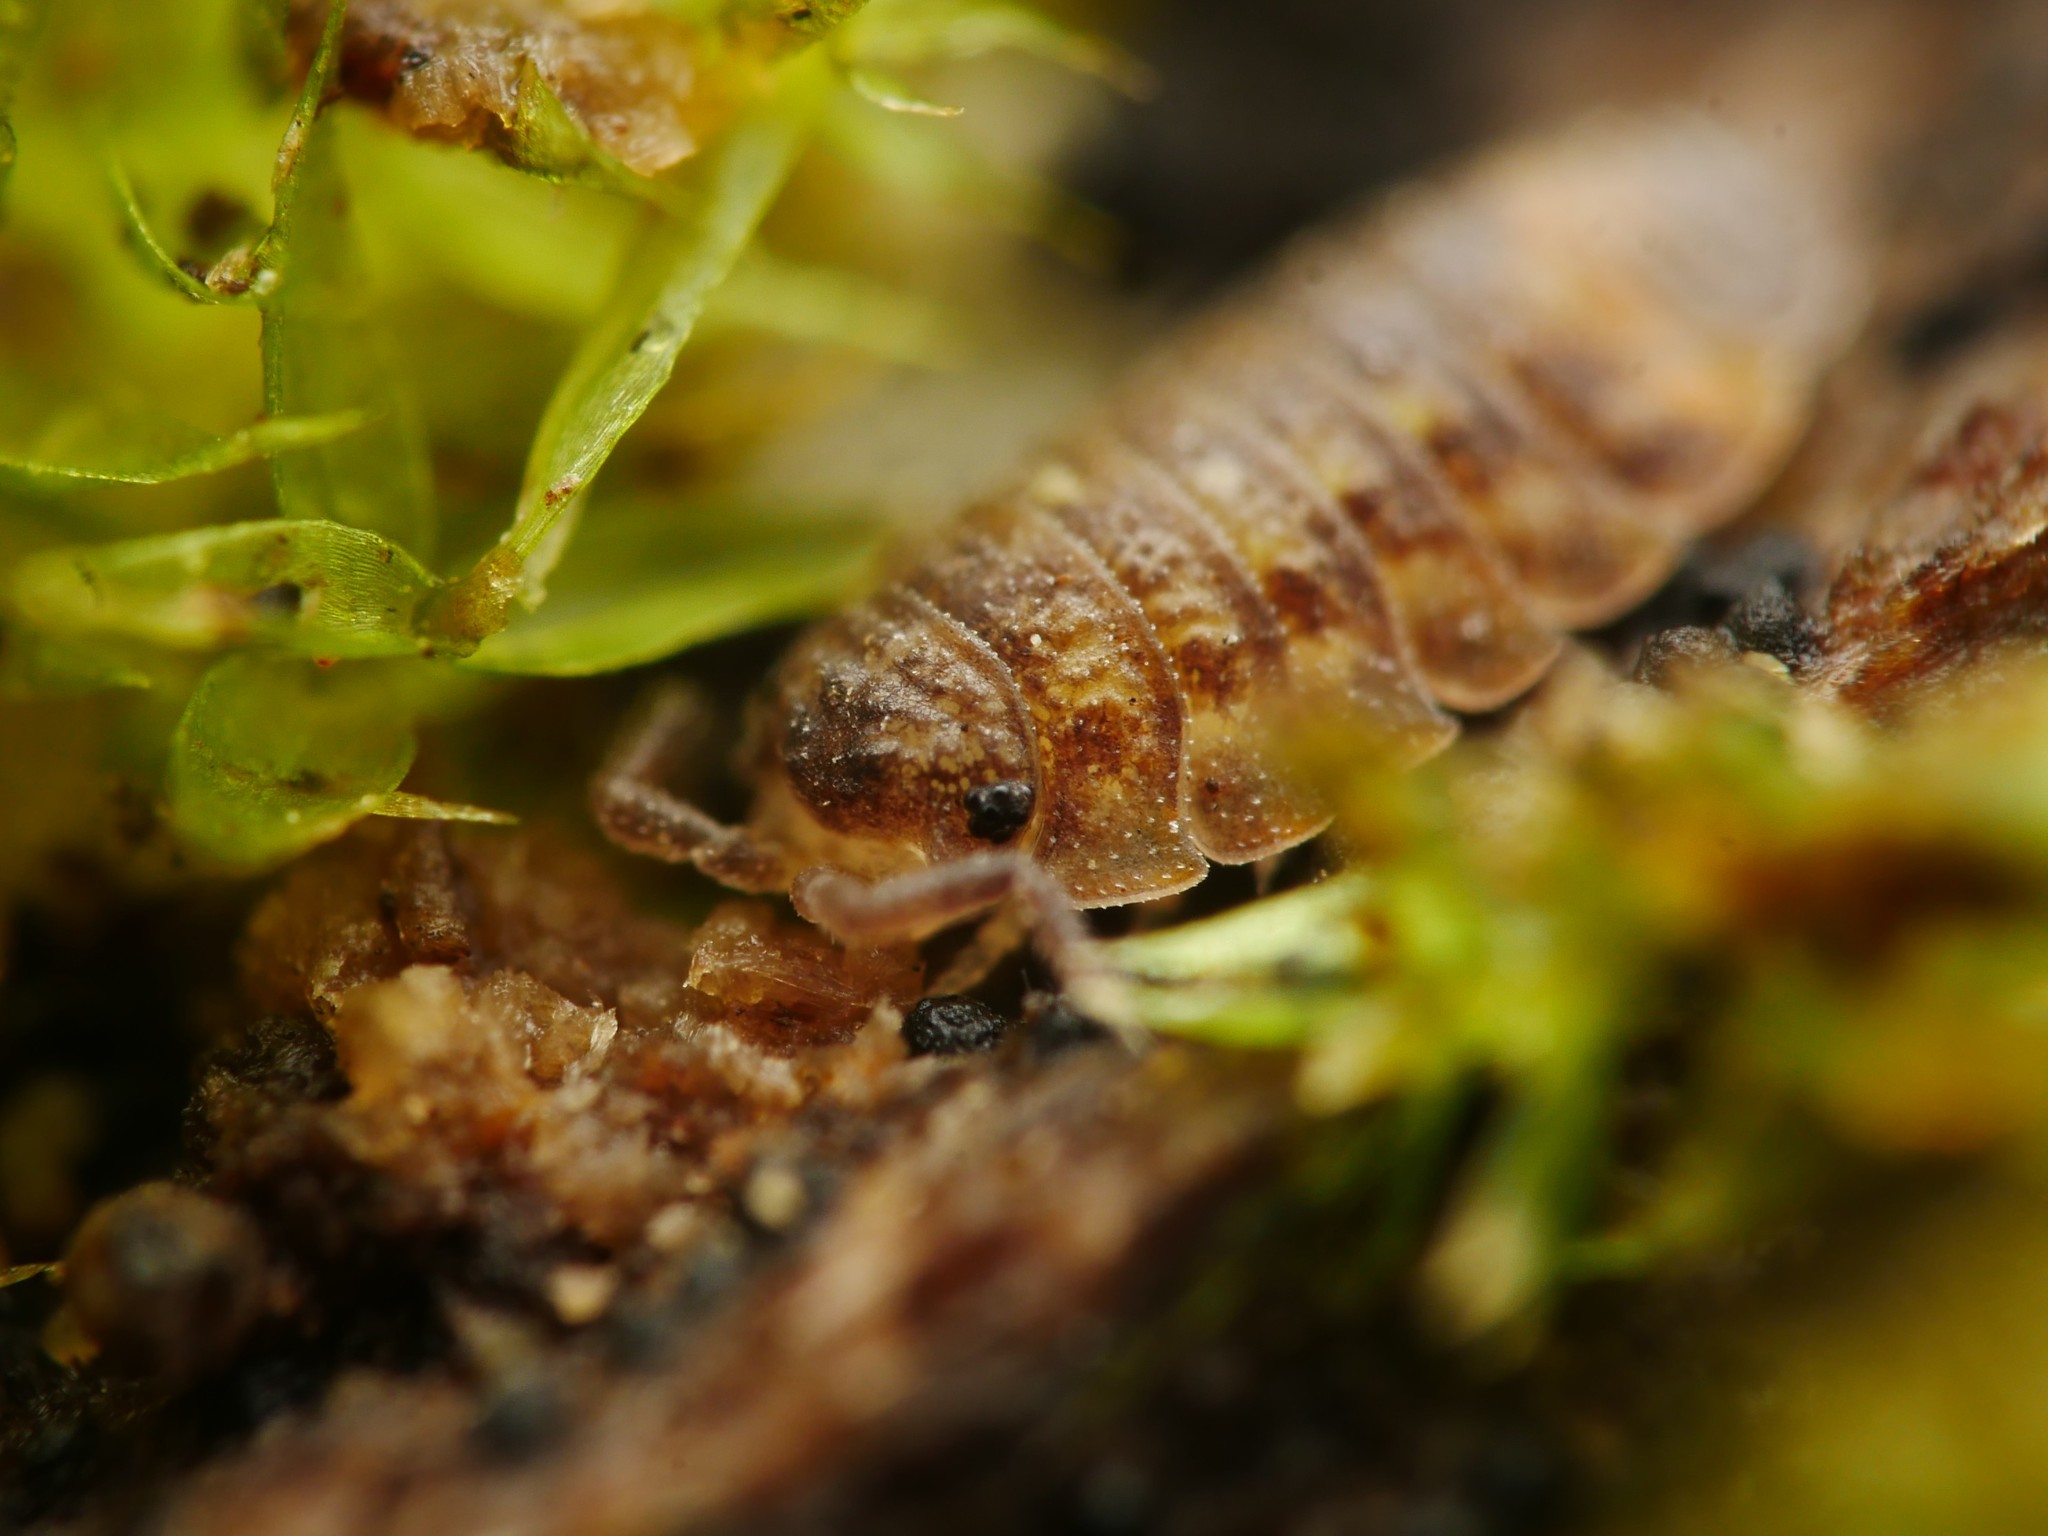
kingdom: Animalia
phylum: Arthropoda
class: Malacostraca
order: Isopoda
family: Oniscidae
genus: Oniscus
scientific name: Oniscus asellus
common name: Common shiny woodlouse
